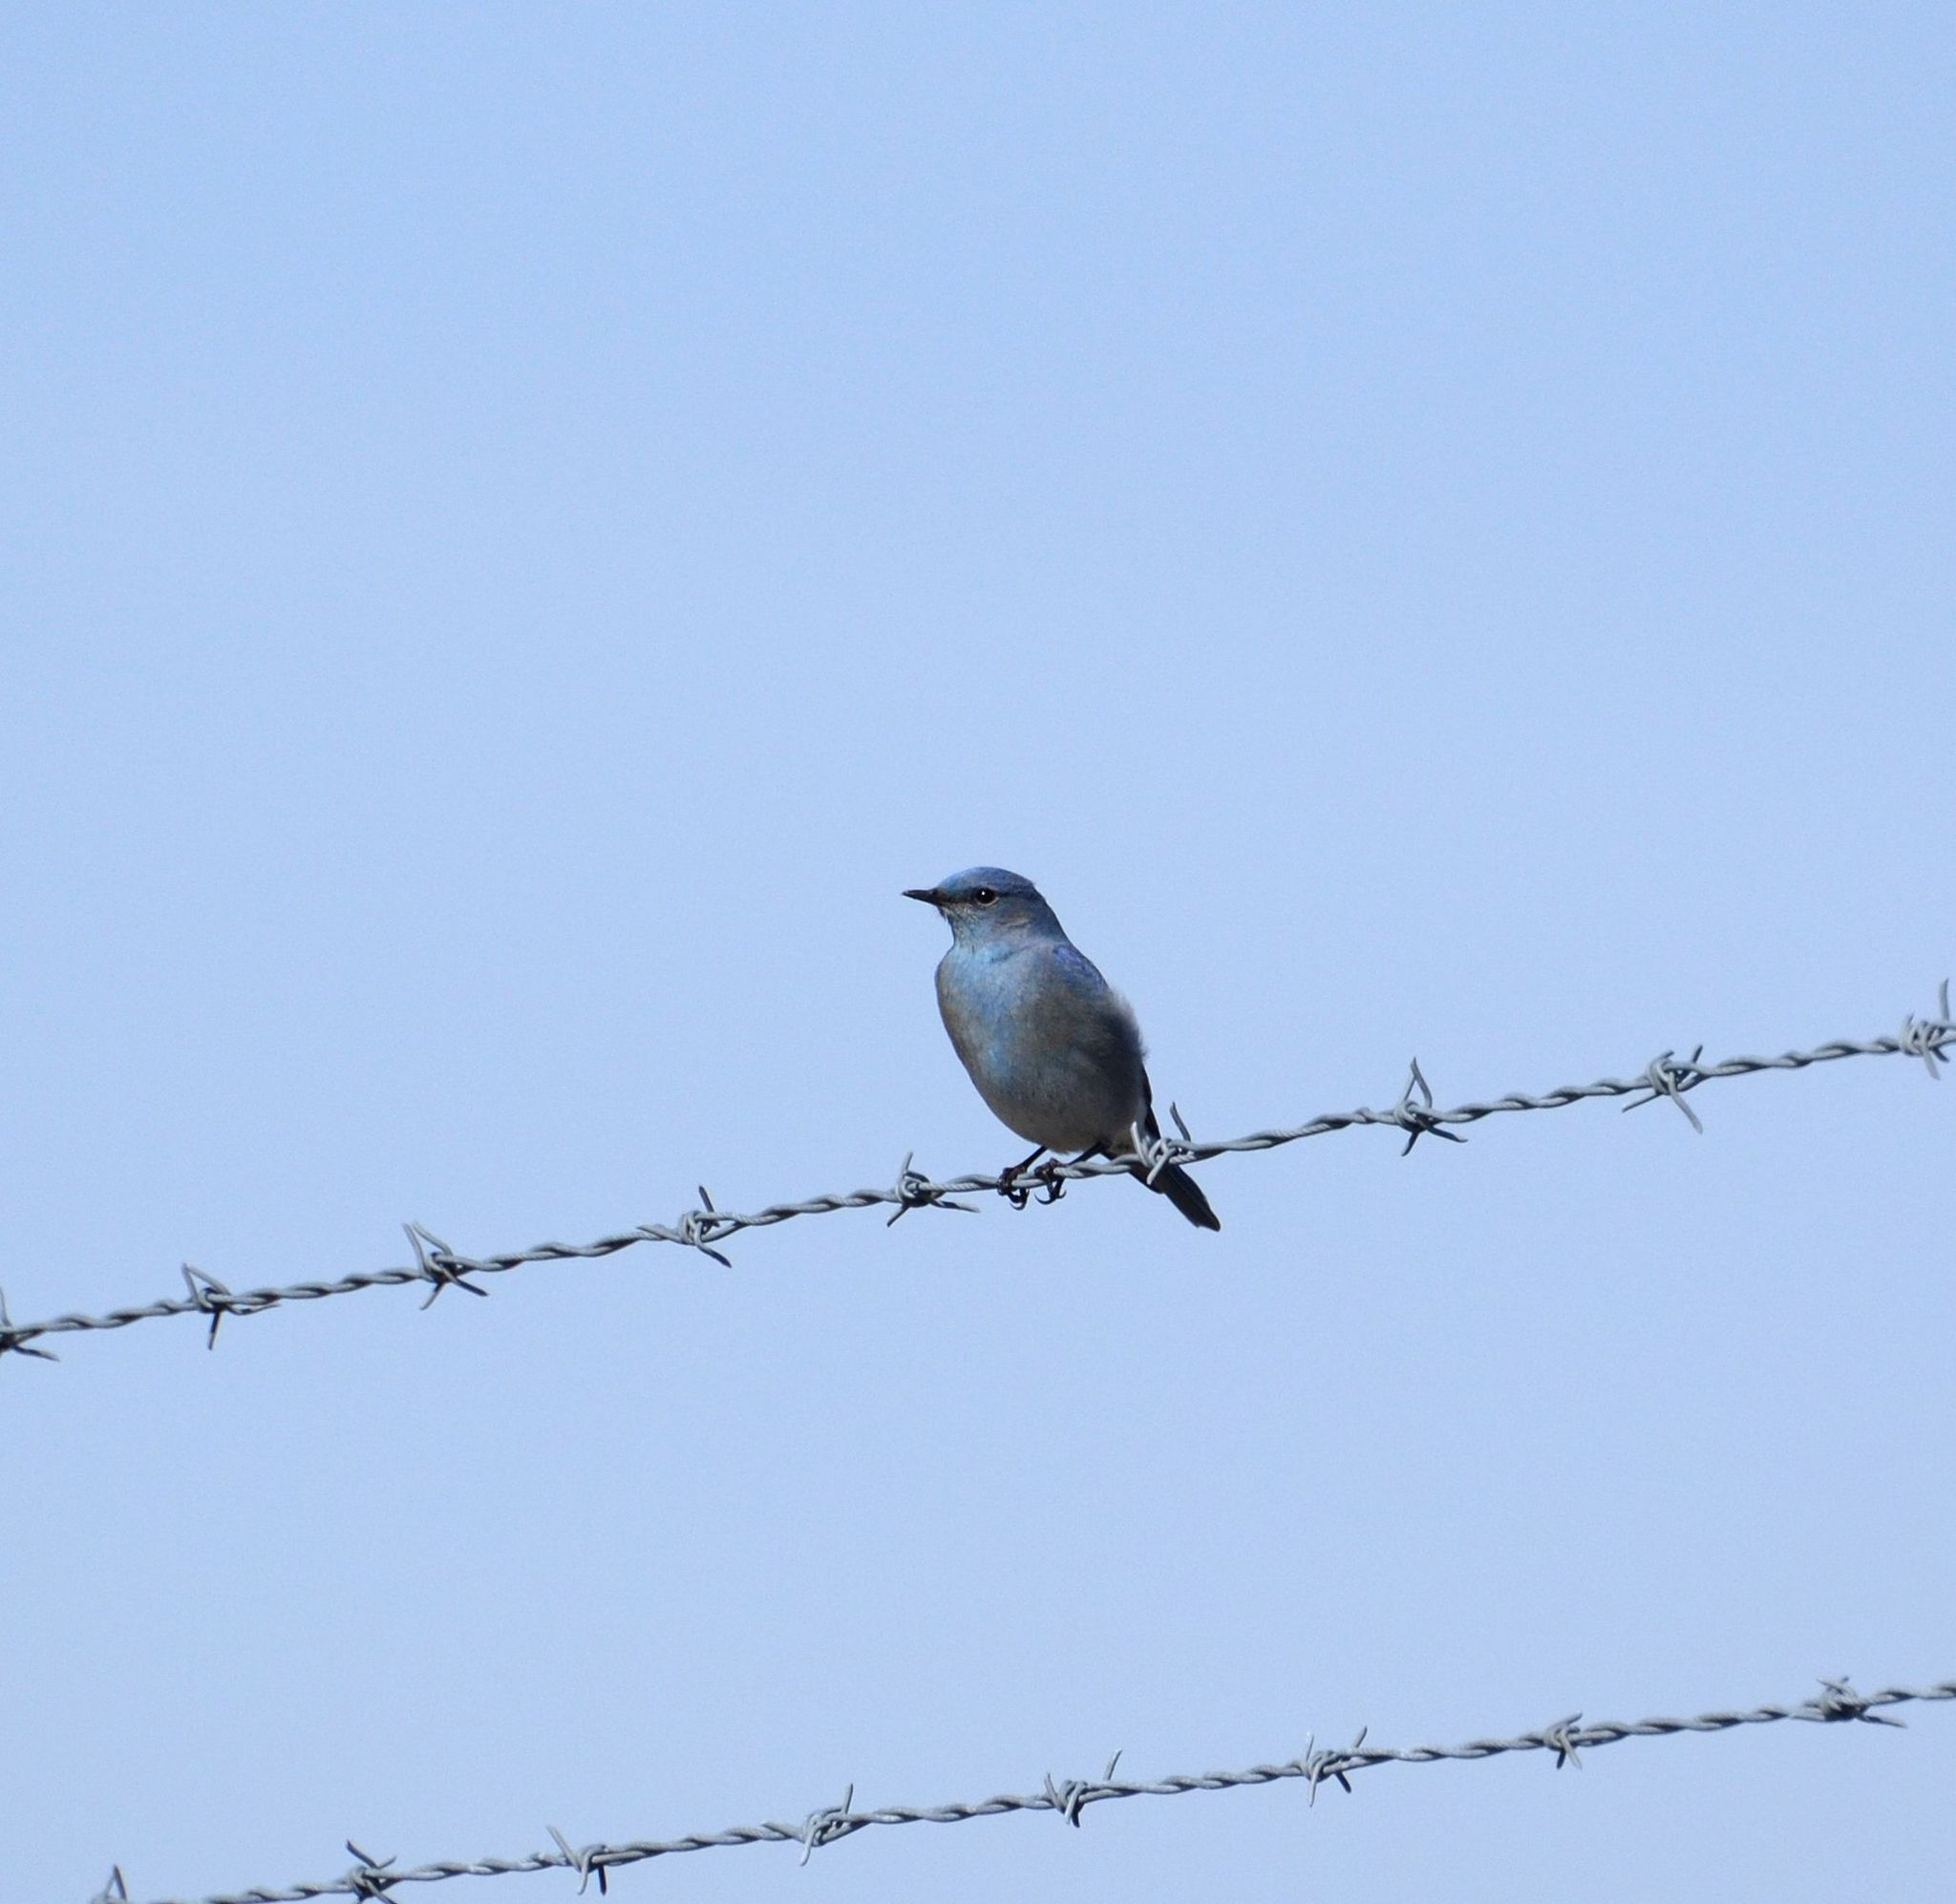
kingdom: Animalia
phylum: Chordata
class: Aves
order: Passeriformes
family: Turdidae
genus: Sialia
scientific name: Sialia currucoides
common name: Mountain bluebird
